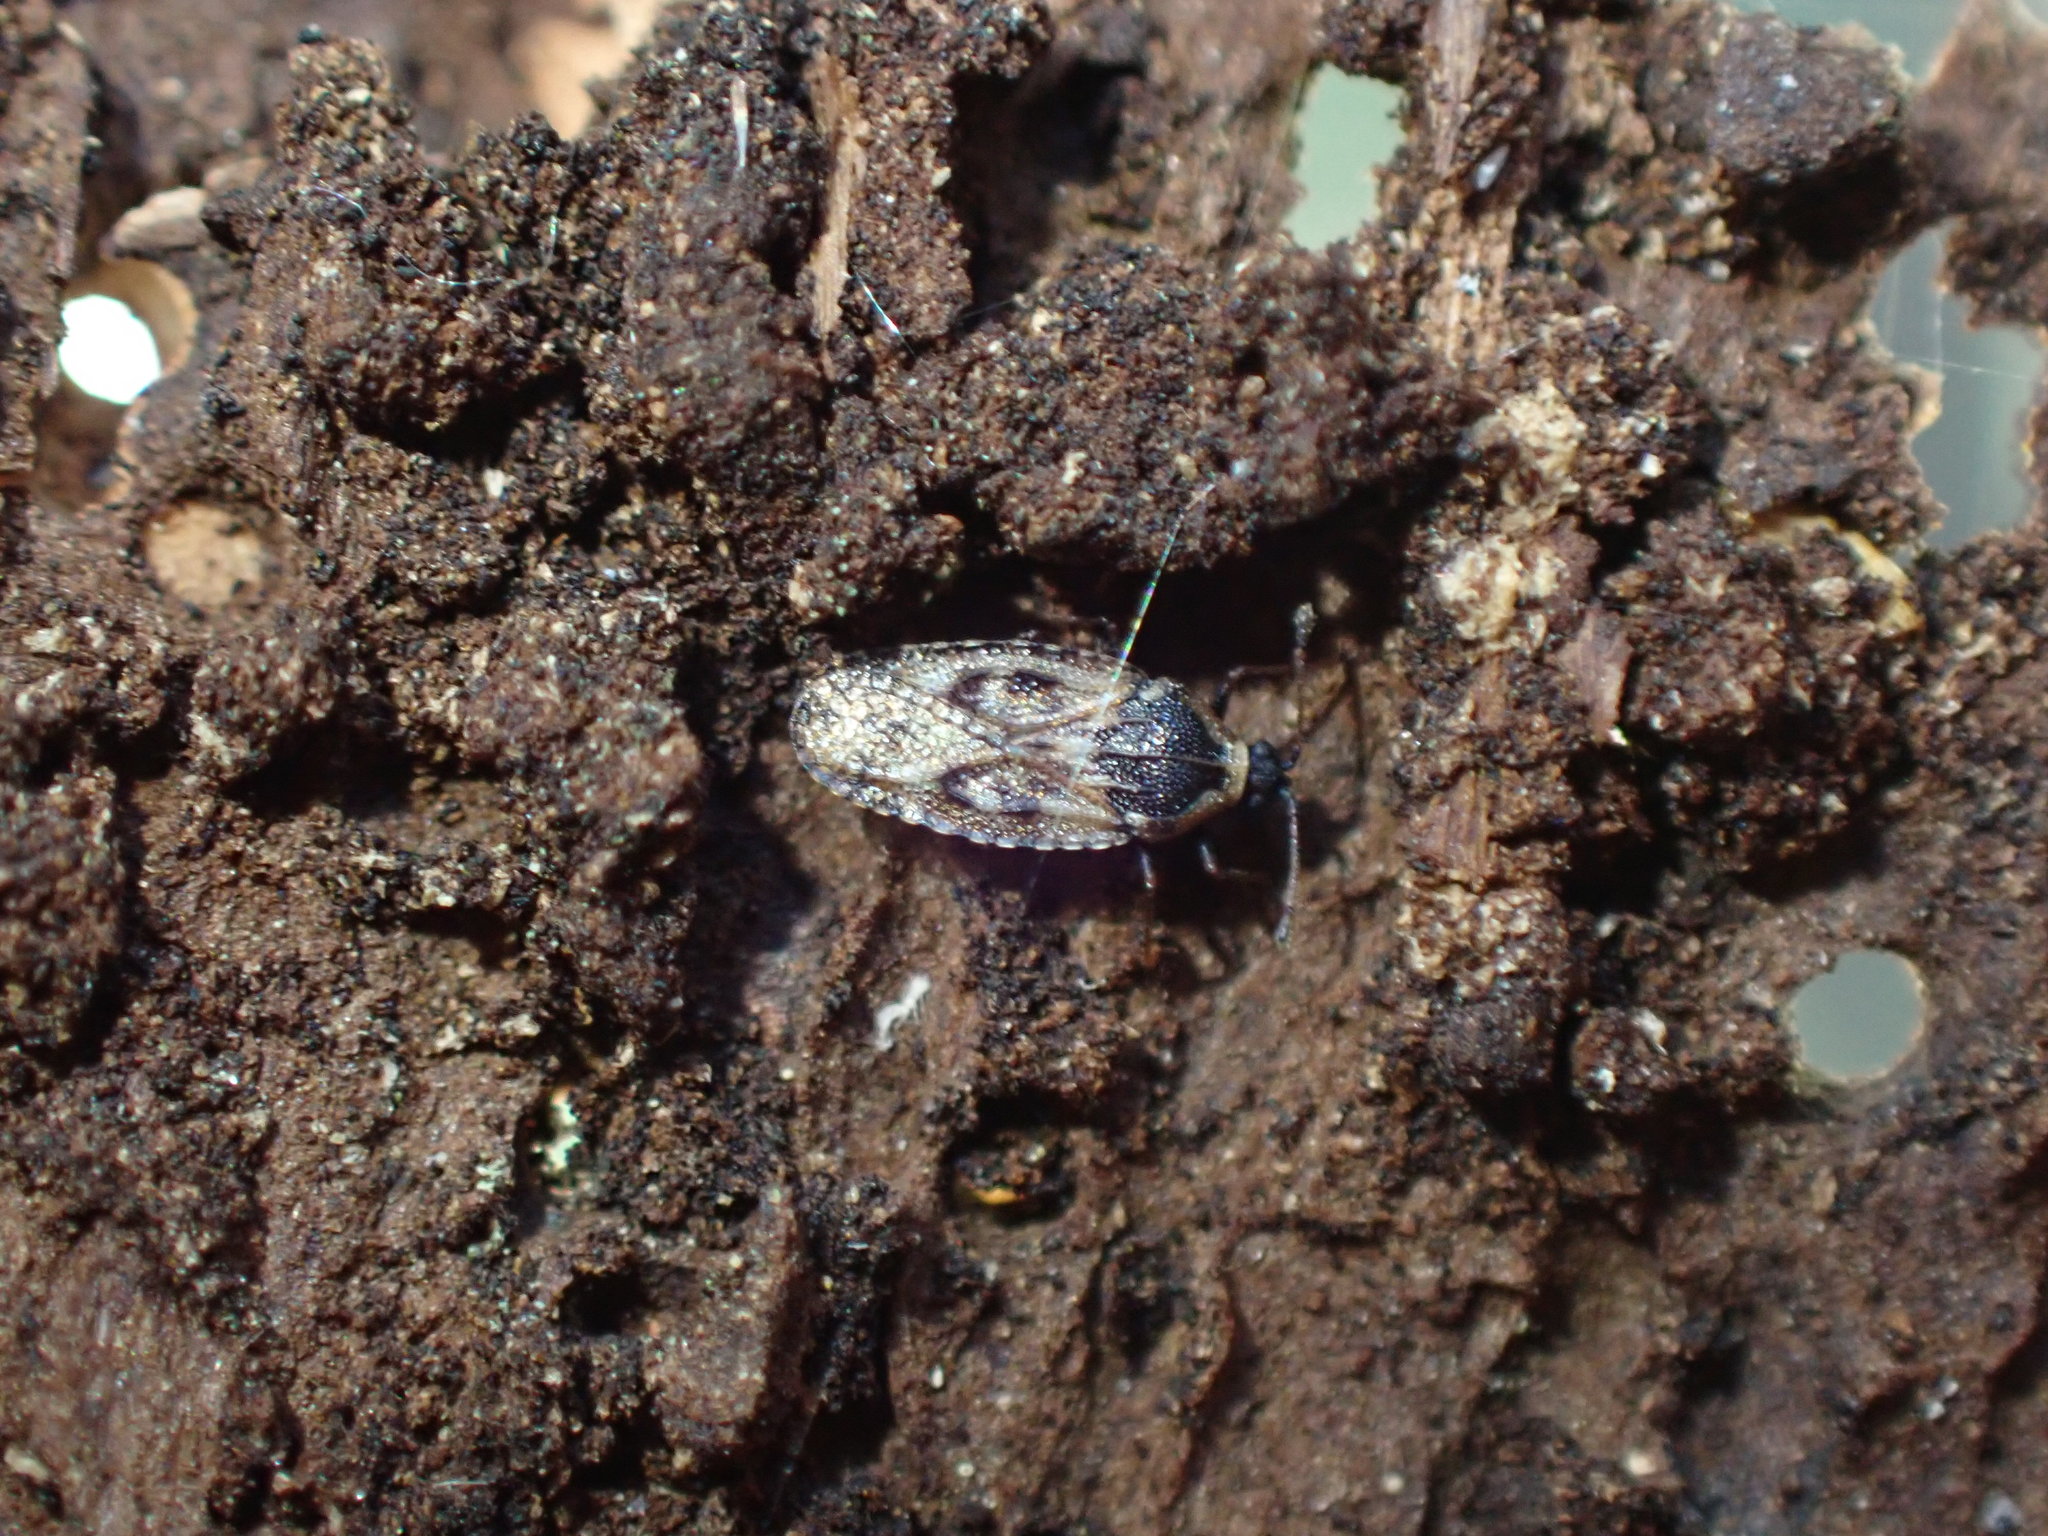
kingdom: Animalia
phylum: Arthropoda
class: Insecta
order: Hemiptera
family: Tingidae
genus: Dictyla
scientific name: Dictyla echii
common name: Lace bug
